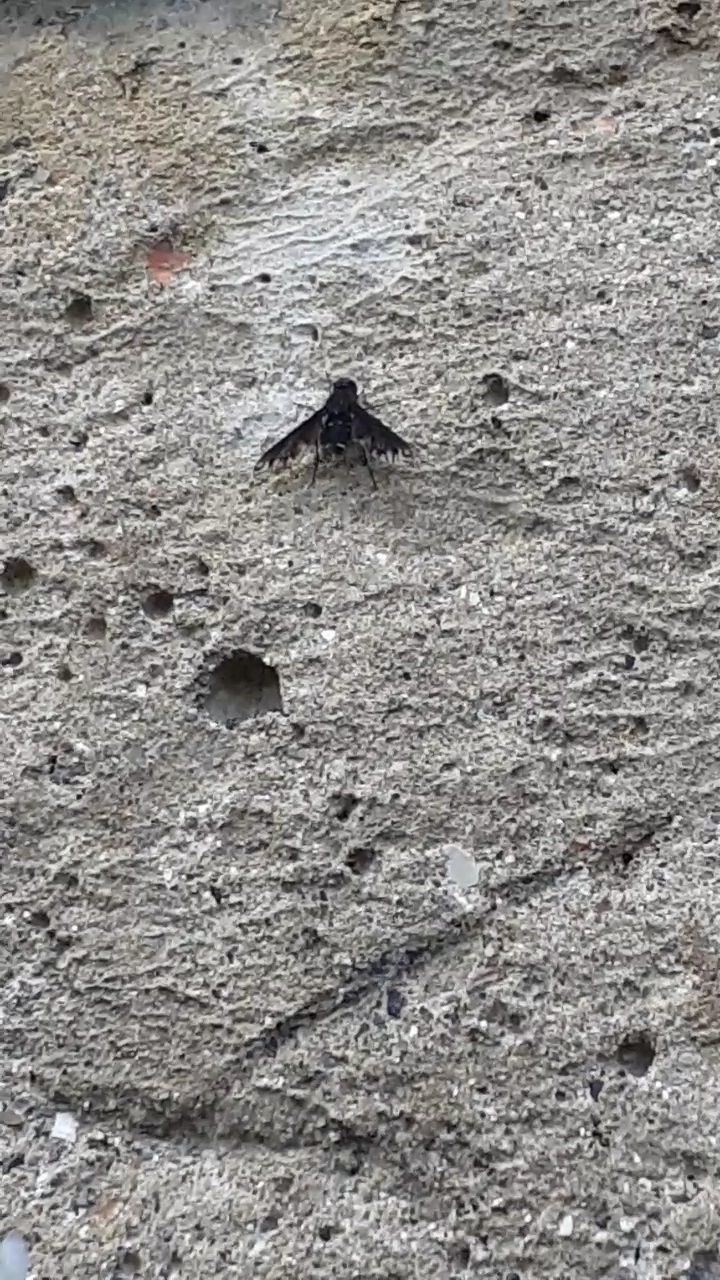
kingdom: Animalia
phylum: Arthropoda
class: Insecta
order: Diptera
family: Bombyliidae
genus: Anthrax
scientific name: Anthrax anthrax
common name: Anthracite bee-fly
